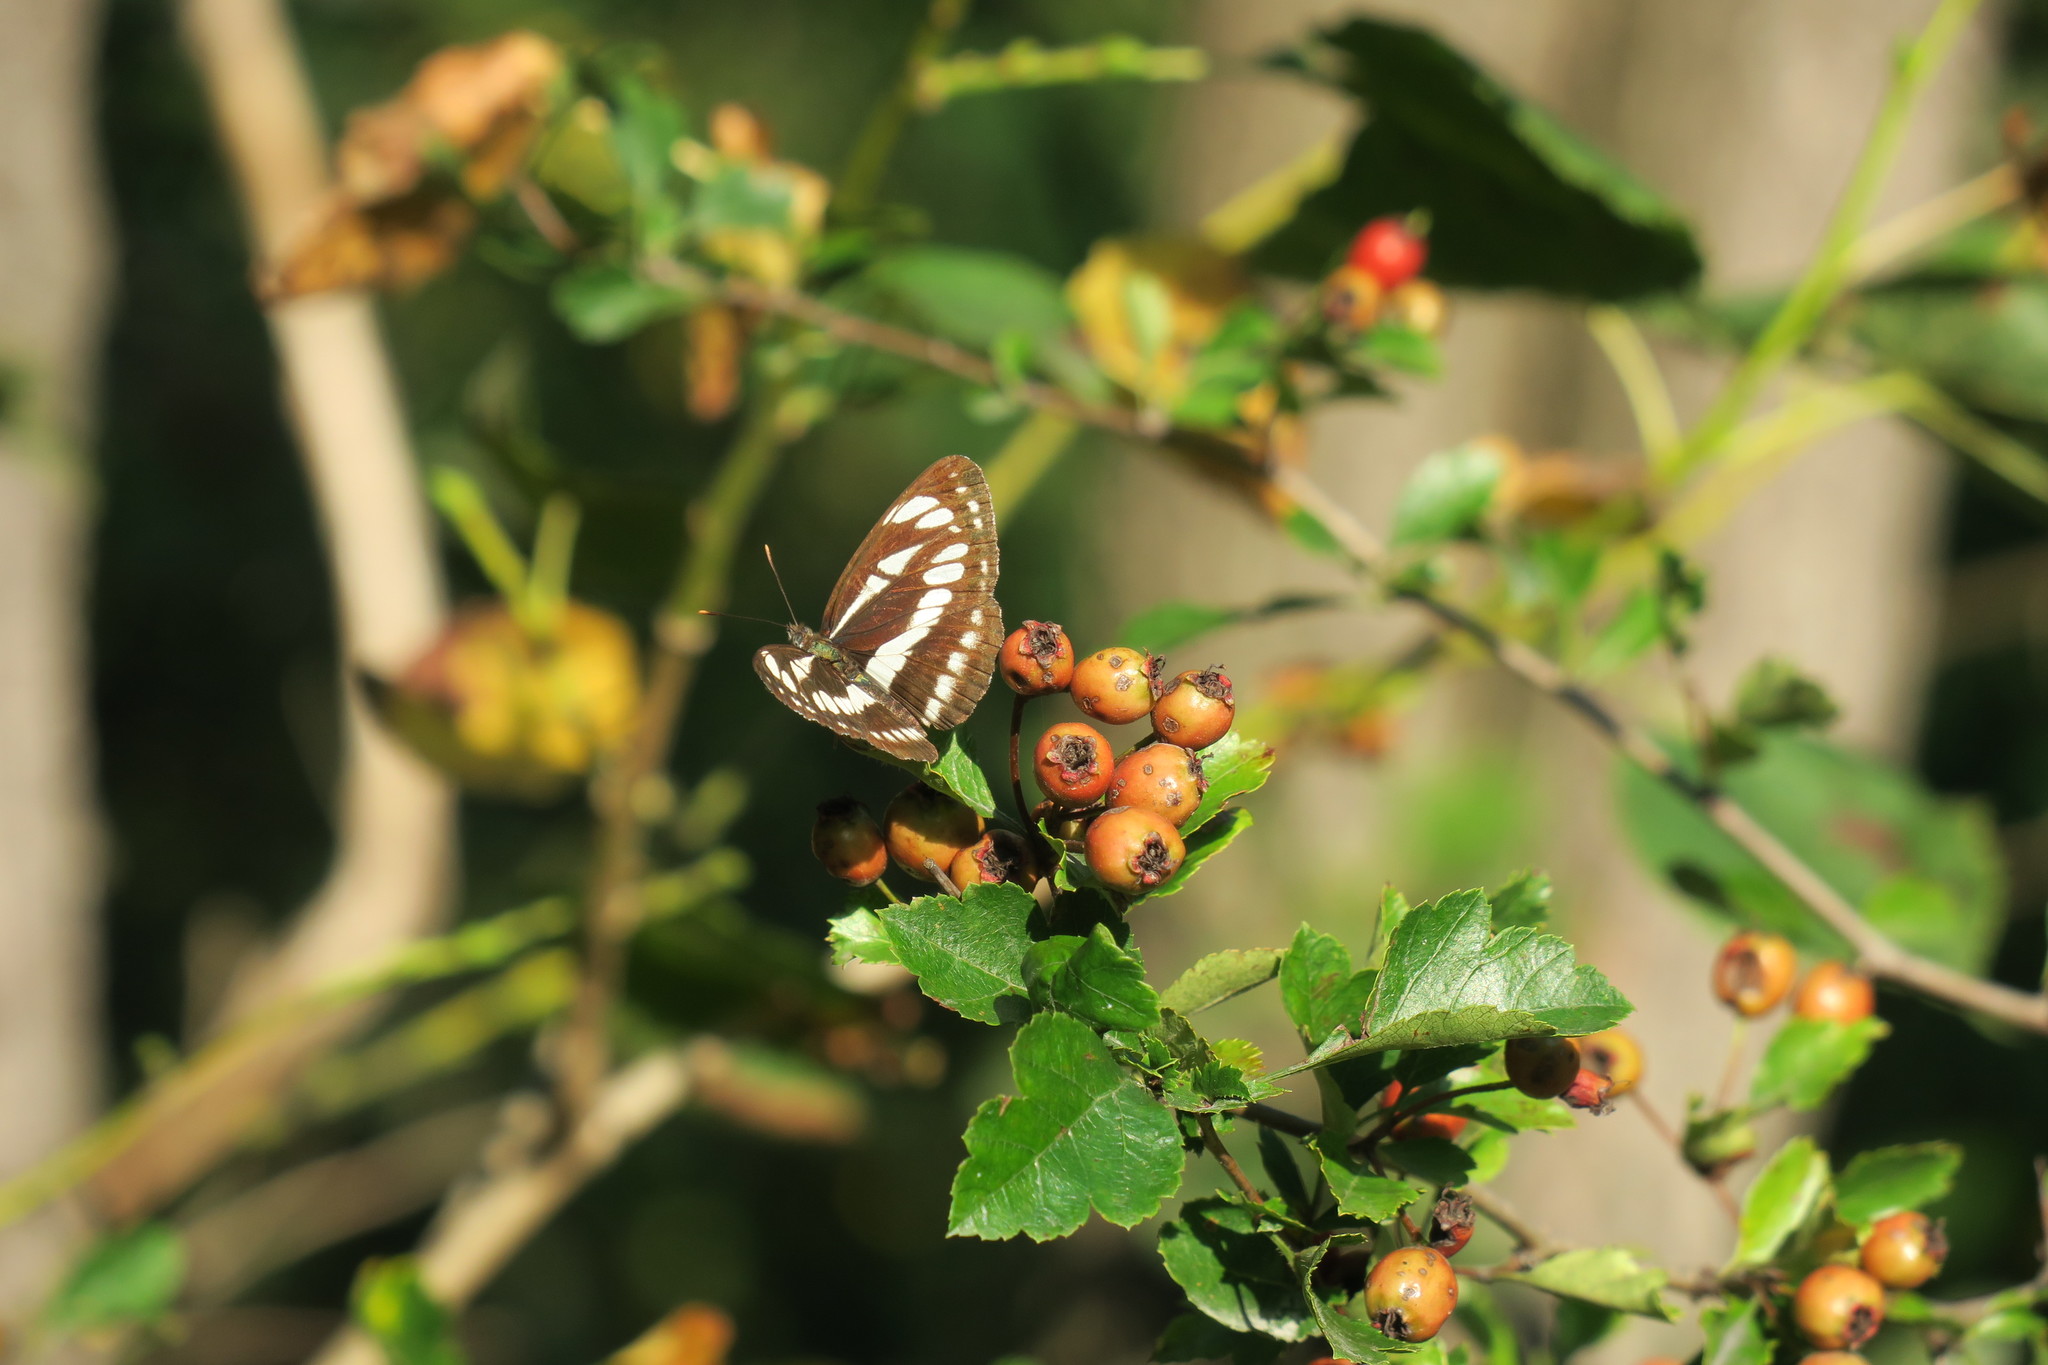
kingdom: Animalia
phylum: Arthropoda
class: Insecta
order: Lepidoptera
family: Nymphalidae
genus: Neptis
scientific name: Neptis sappho
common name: Common glider
